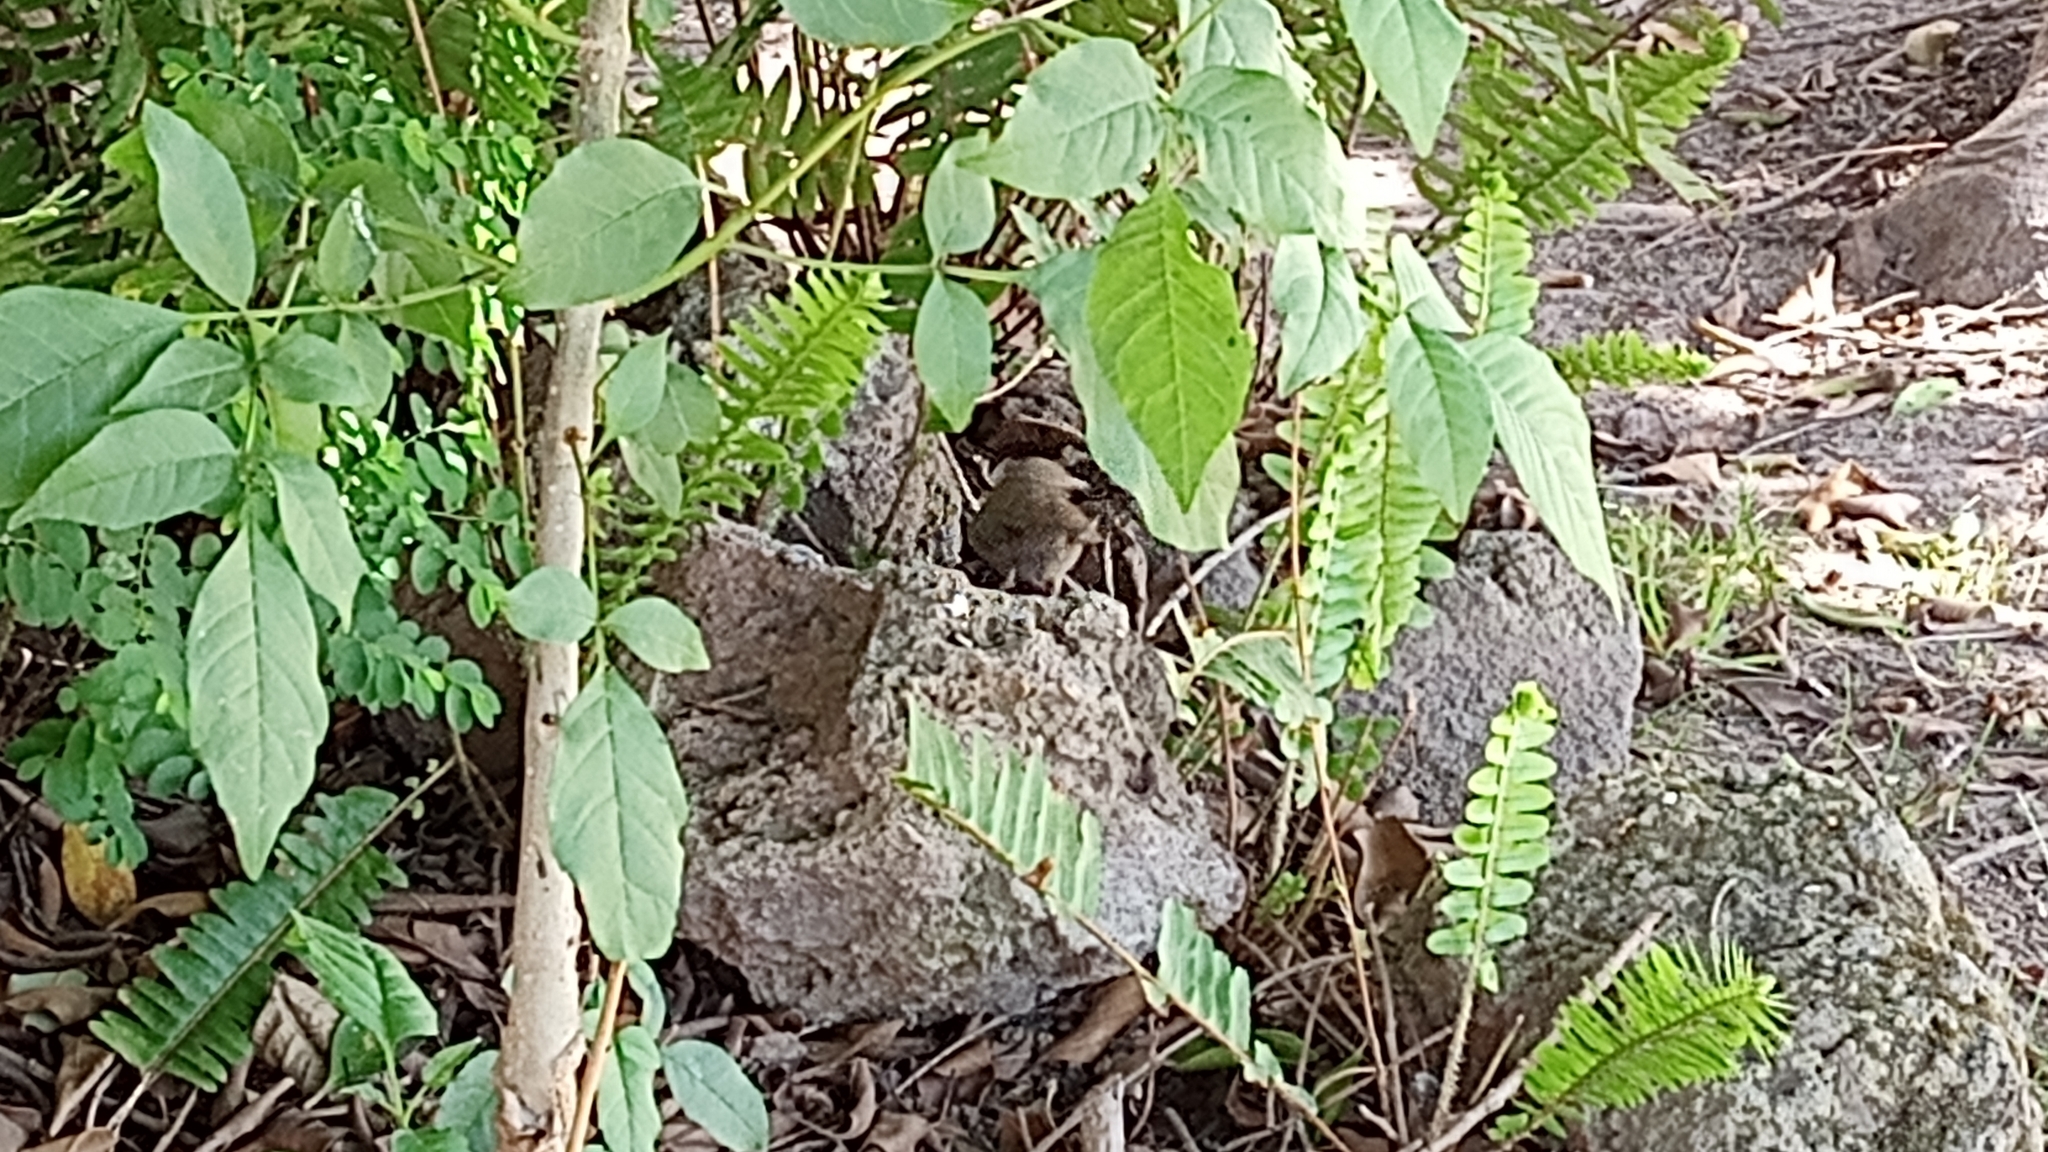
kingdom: Animalia
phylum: Chordata
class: Aves
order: Passeriformes
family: Troglodytidae
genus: Troglodytes
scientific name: Troglodytes aedon
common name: House wren
